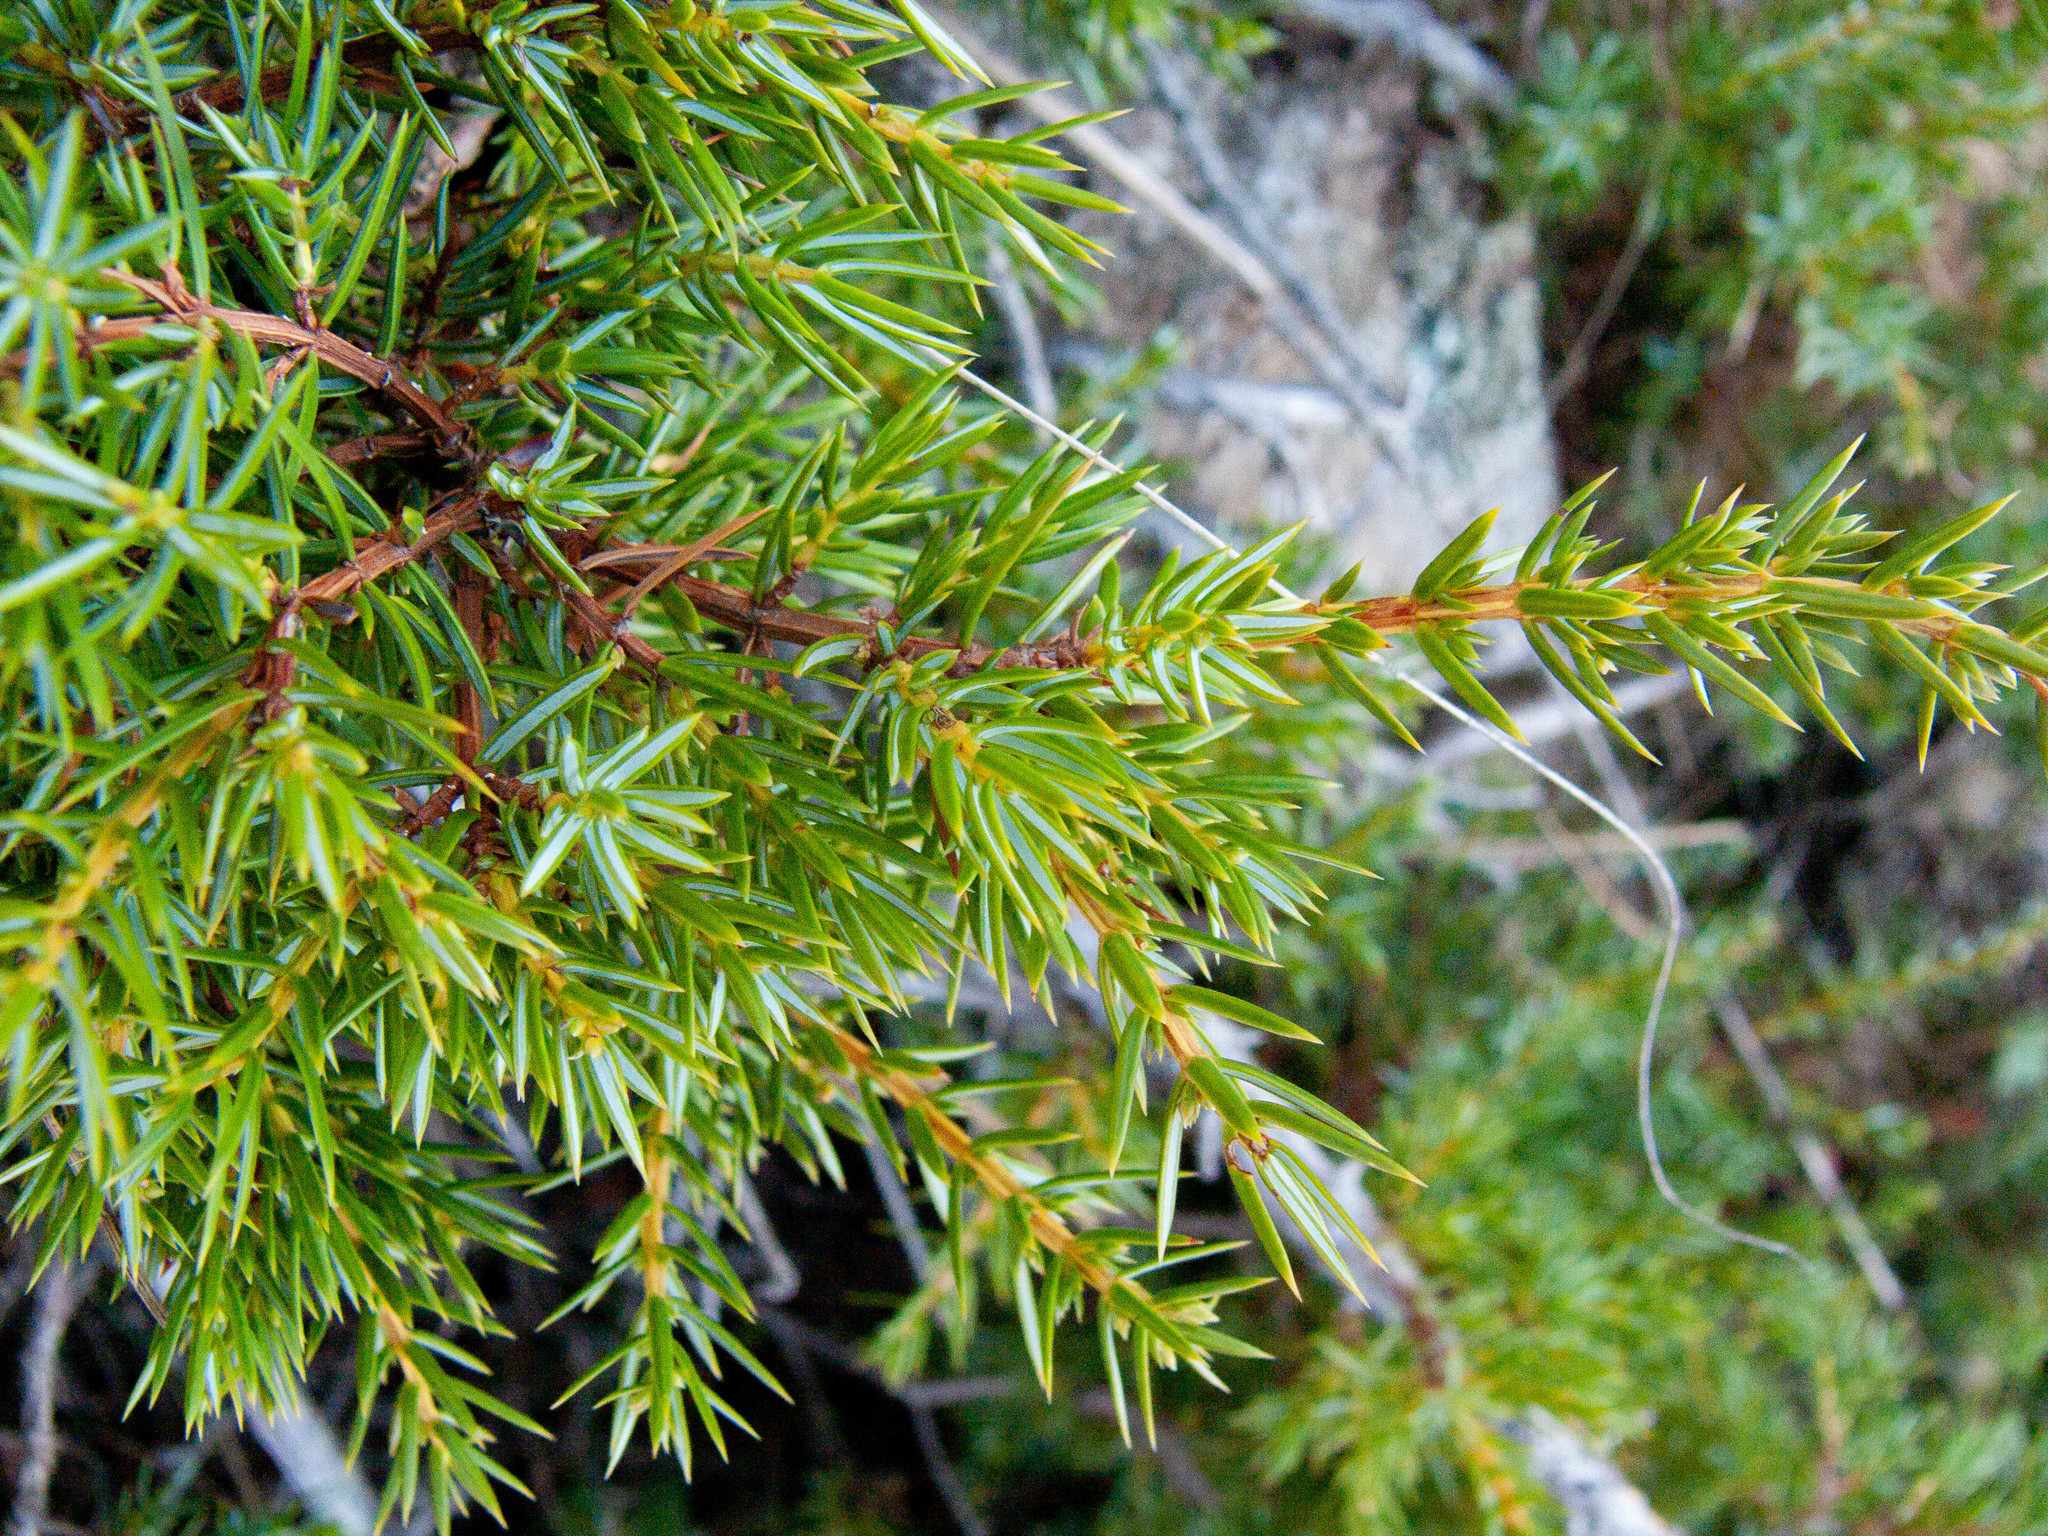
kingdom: Plantae
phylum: Tracheophyta
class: Pinopsida
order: Pinales
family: Cupressaceae
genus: Juniperus
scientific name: Juniperus communis
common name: Common juniper
